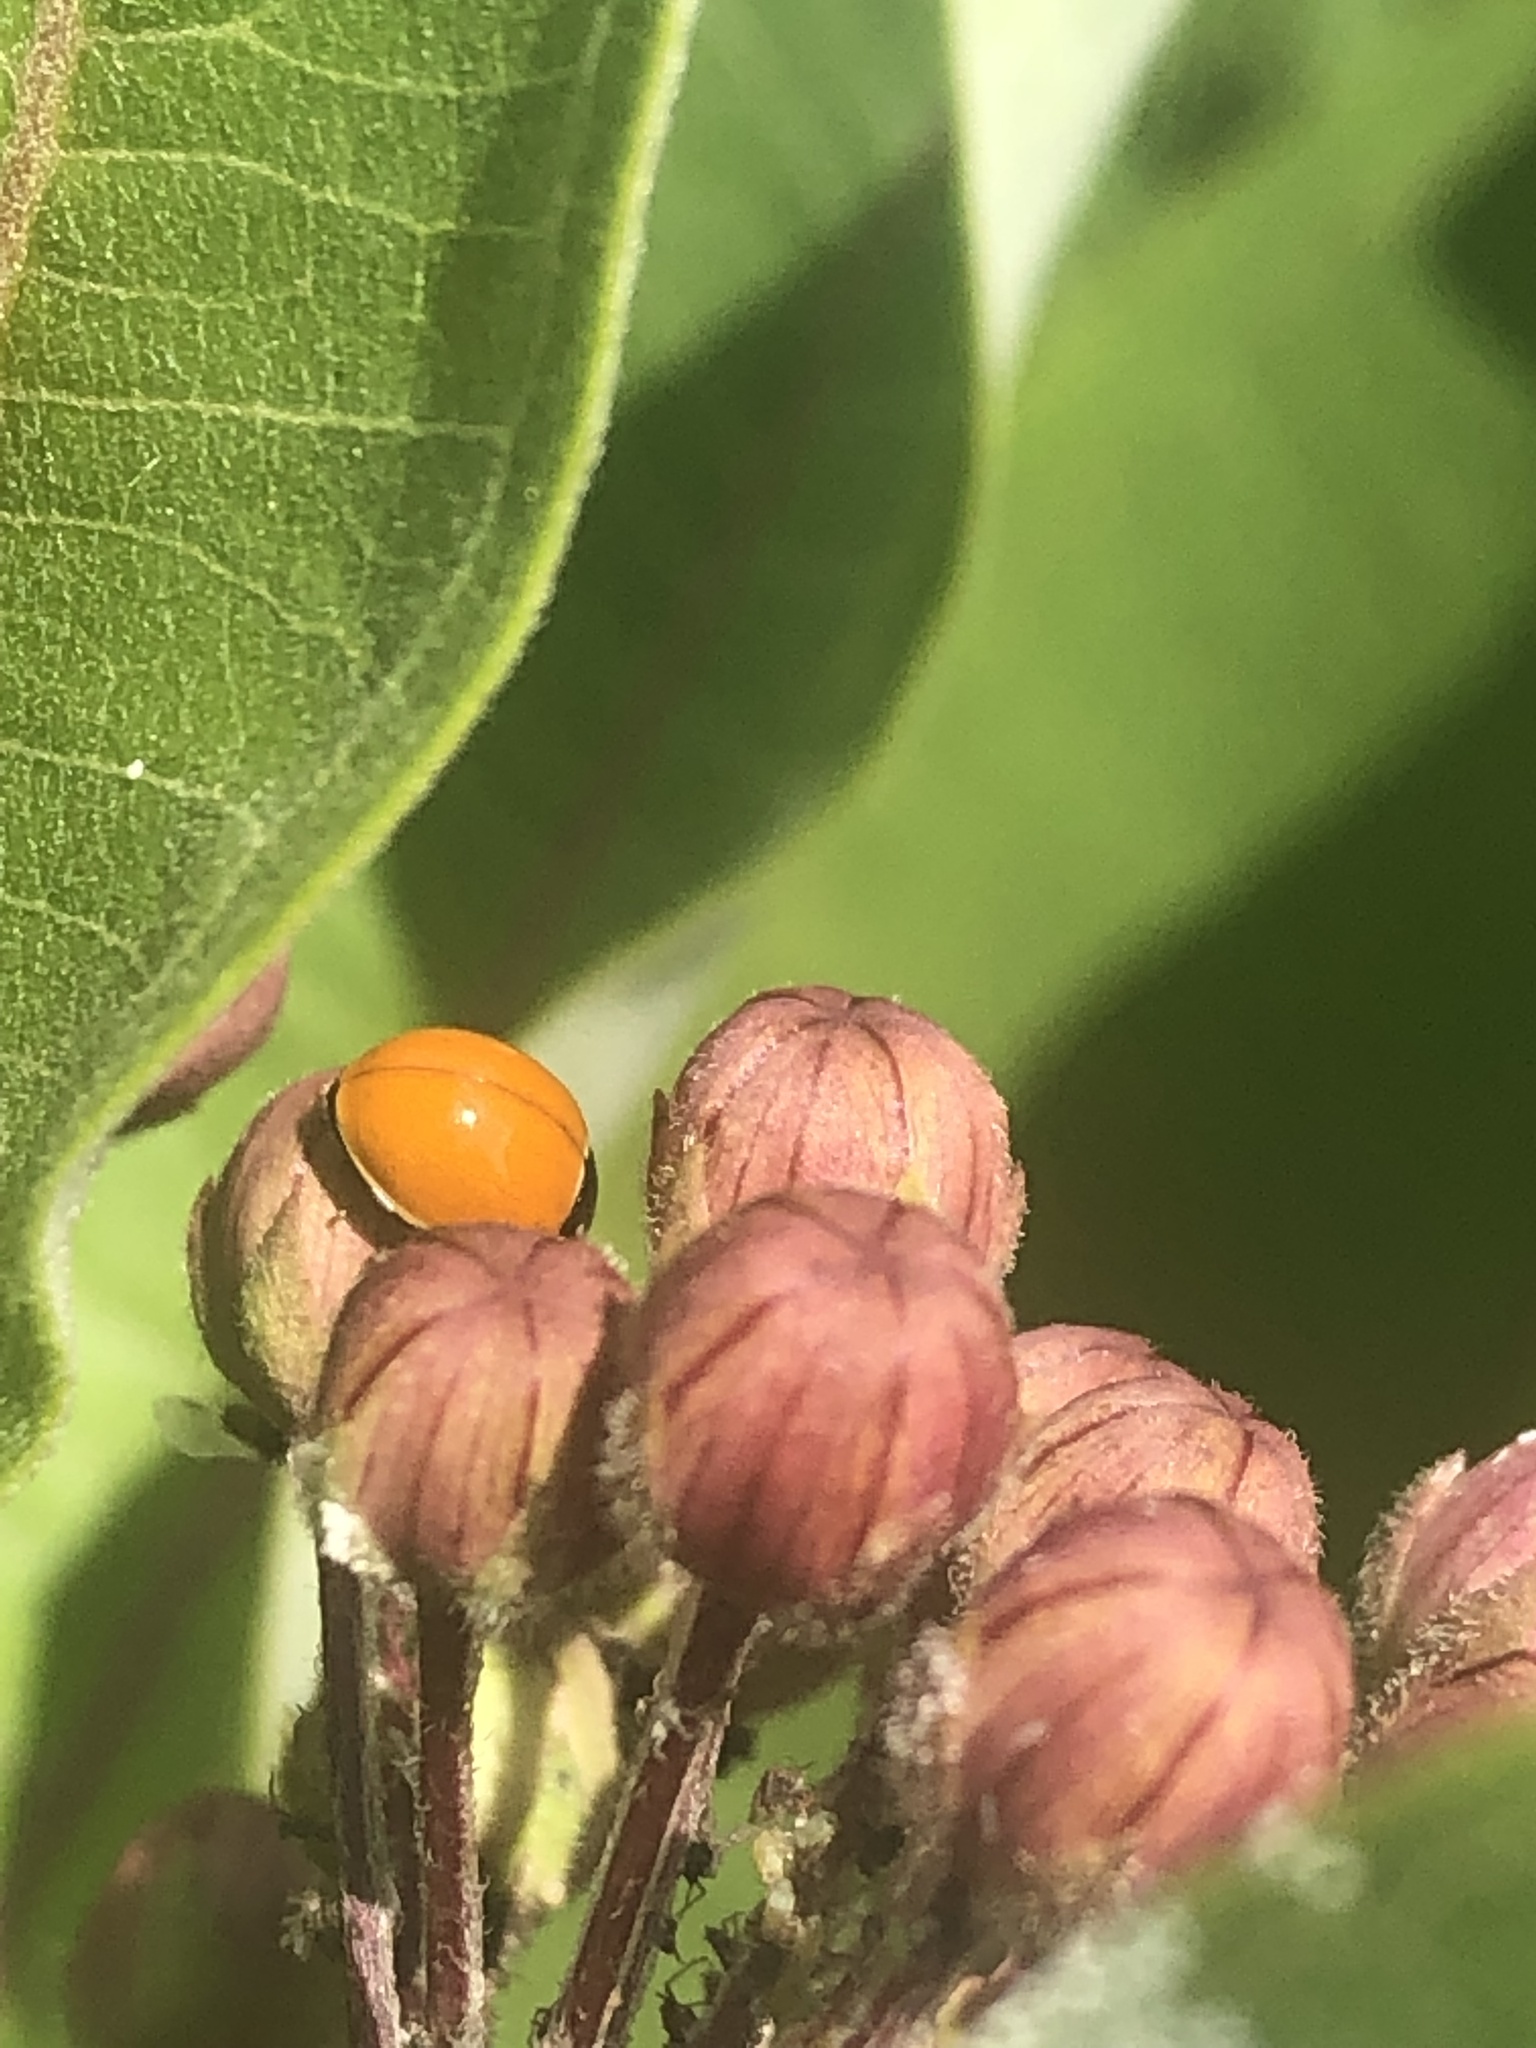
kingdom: Animalia
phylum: Arthropoda
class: Insecta
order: Coleoptera
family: Coccinellidae
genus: Cycloneda
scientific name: Cycloneda munda
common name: Polished lady beetle
